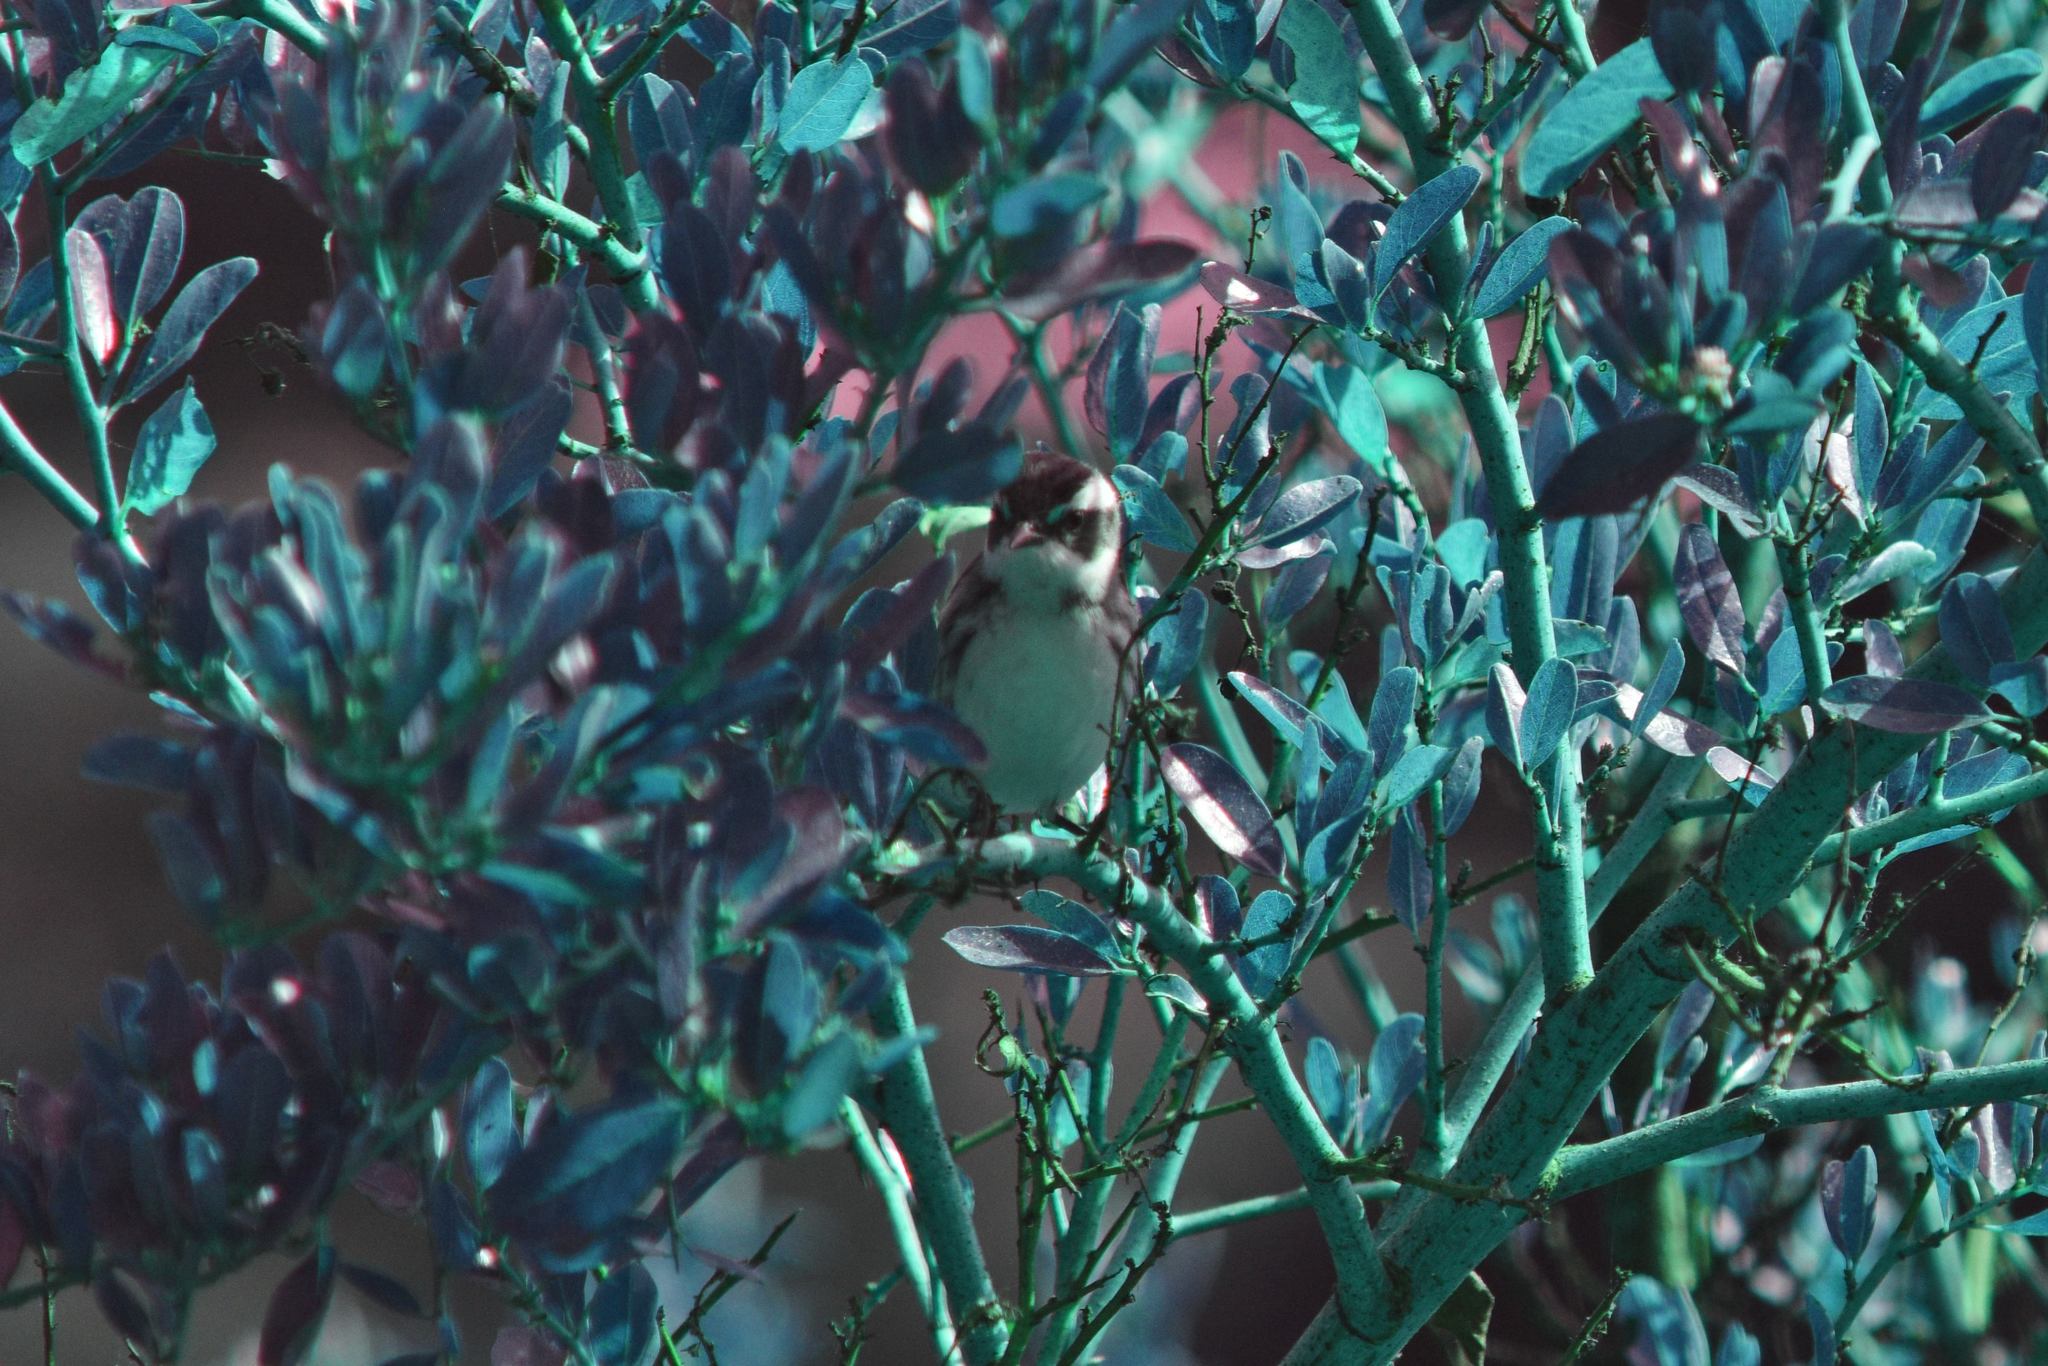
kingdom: Animalia
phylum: Chordata
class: Aves
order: Passeriformes
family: Parulidae
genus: Setophaga
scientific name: Setophaga nigrescens
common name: Black-throated gray warbler
